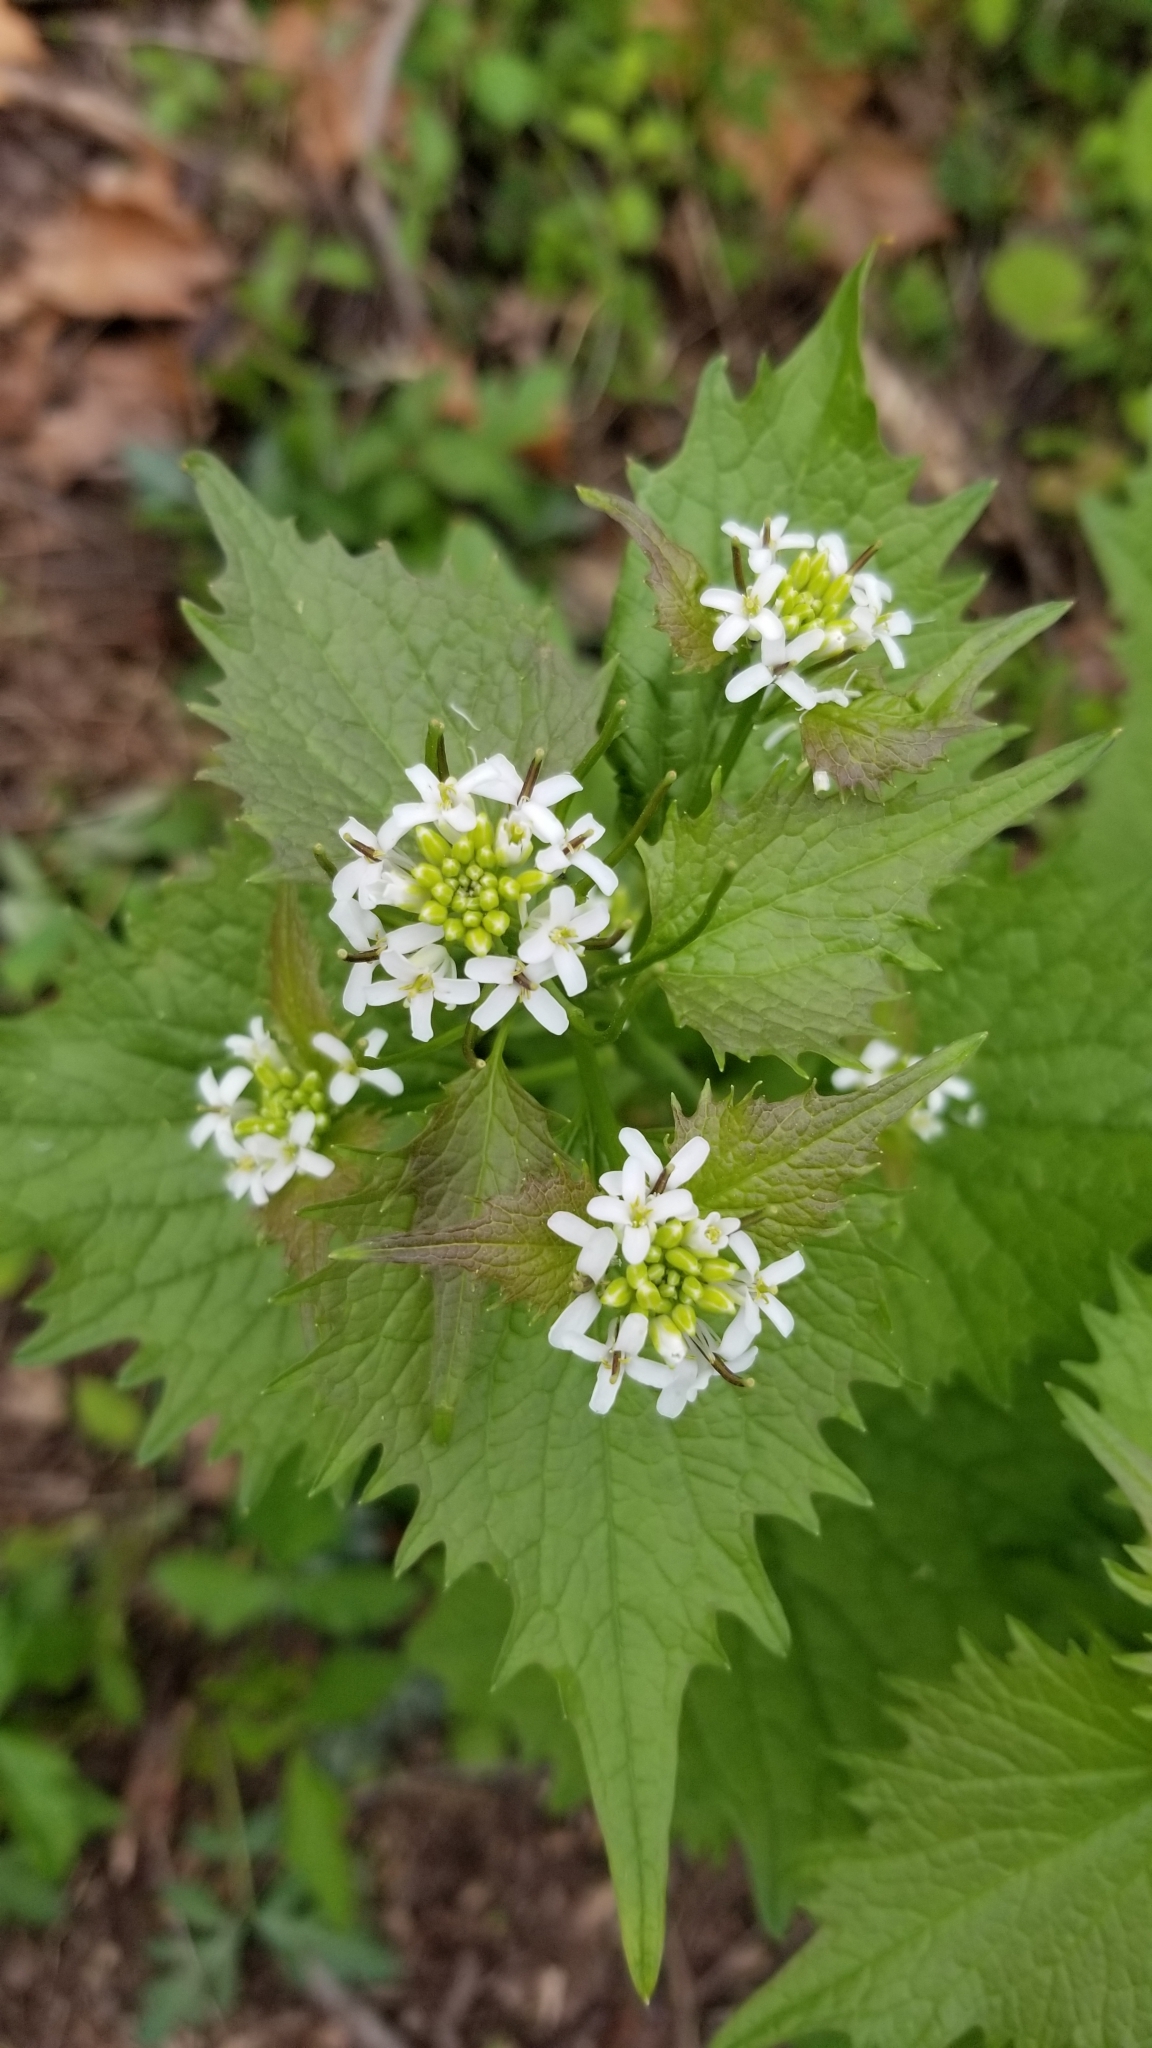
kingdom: Plantae
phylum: Tracheophyta
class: Magnoliopsida
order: Brassicales
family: Brassicaceae
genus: Alliaria
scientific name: Alliaria petiolata
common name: Garlic mustard
